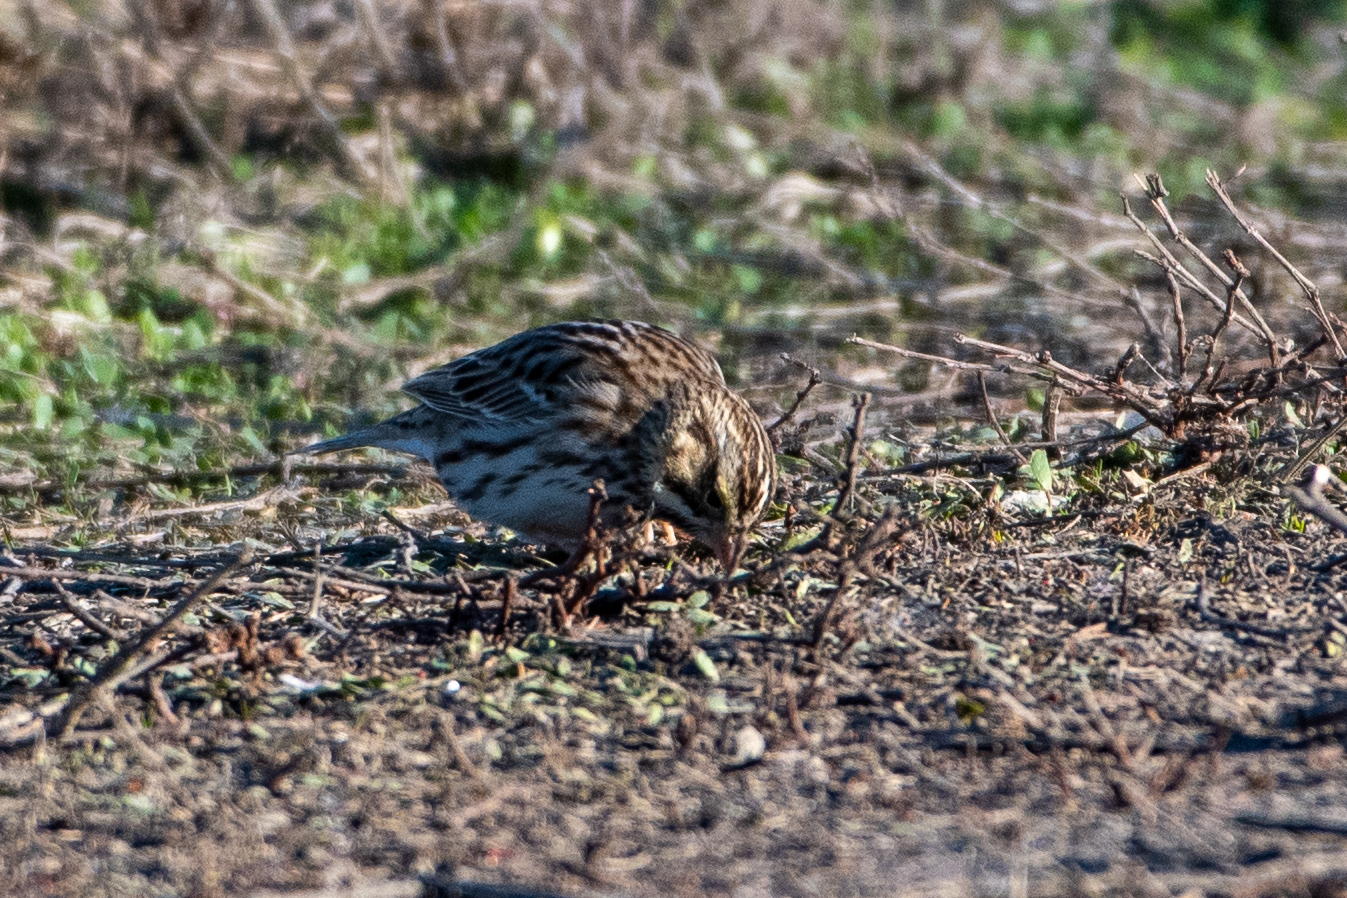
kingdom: Animalia
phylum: Chordata
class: Aves
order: Passeriformes
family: Passerellidae
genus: Passerculus
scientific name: Passerculus sandwichensis
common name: Savannah sparrow
